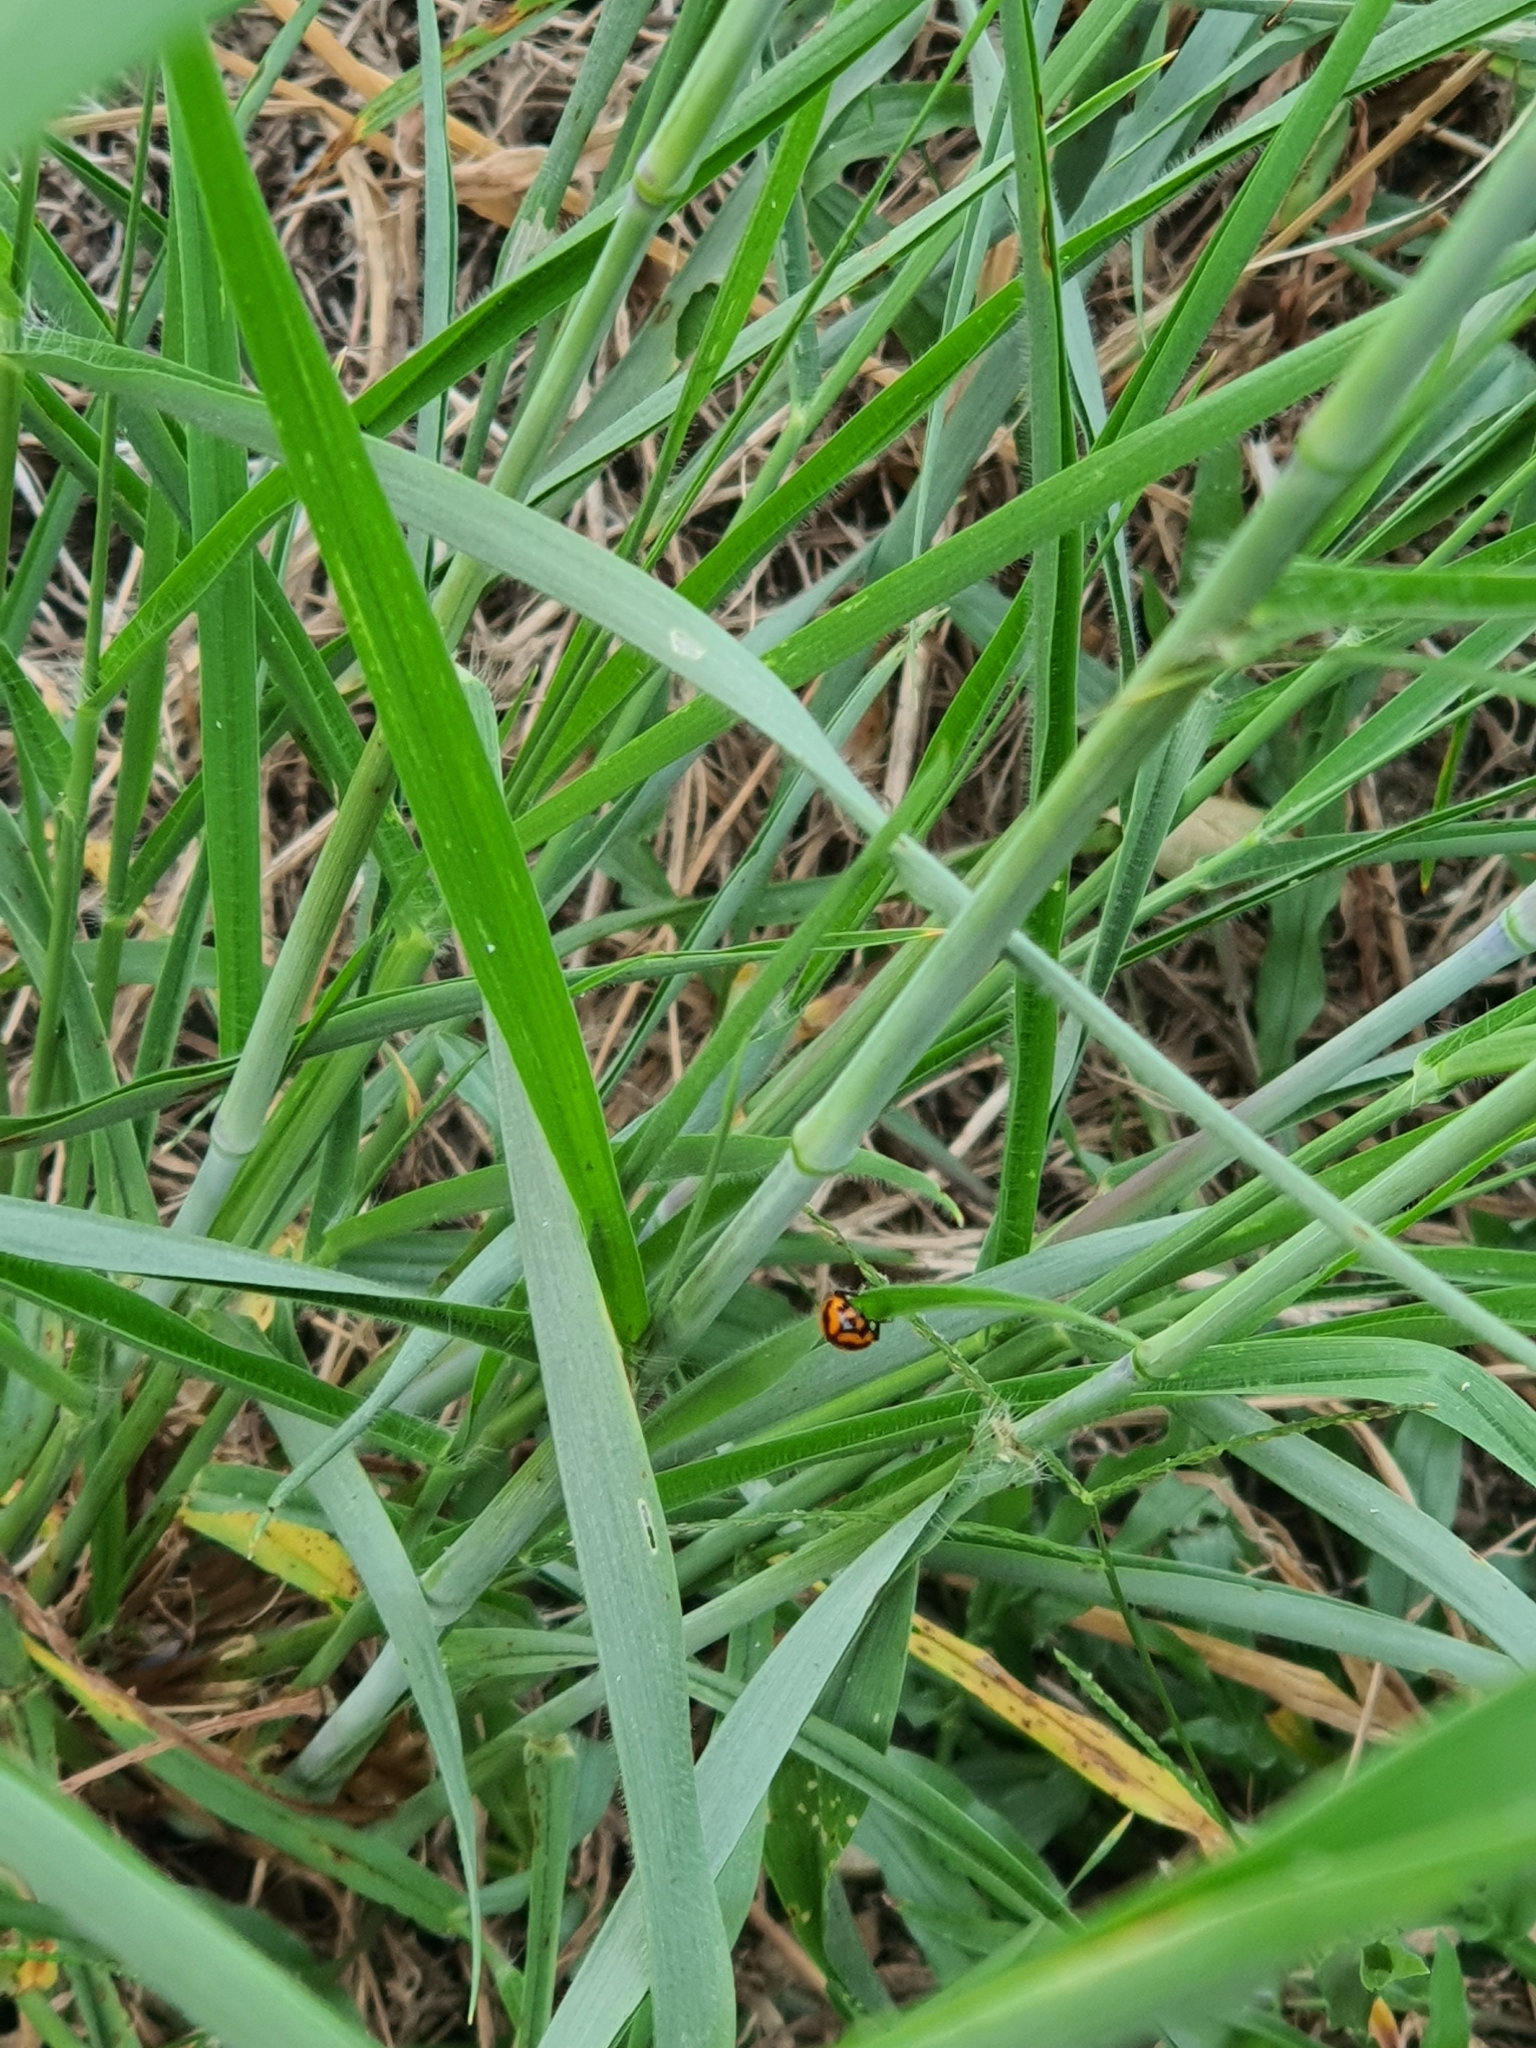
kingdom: Animalia
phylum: Arthropoda
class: Insecta
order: Coleoptera
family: Coccinellidae
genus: Coccinella
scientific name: Coccinella transversalis
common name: Transverse lady beetle
